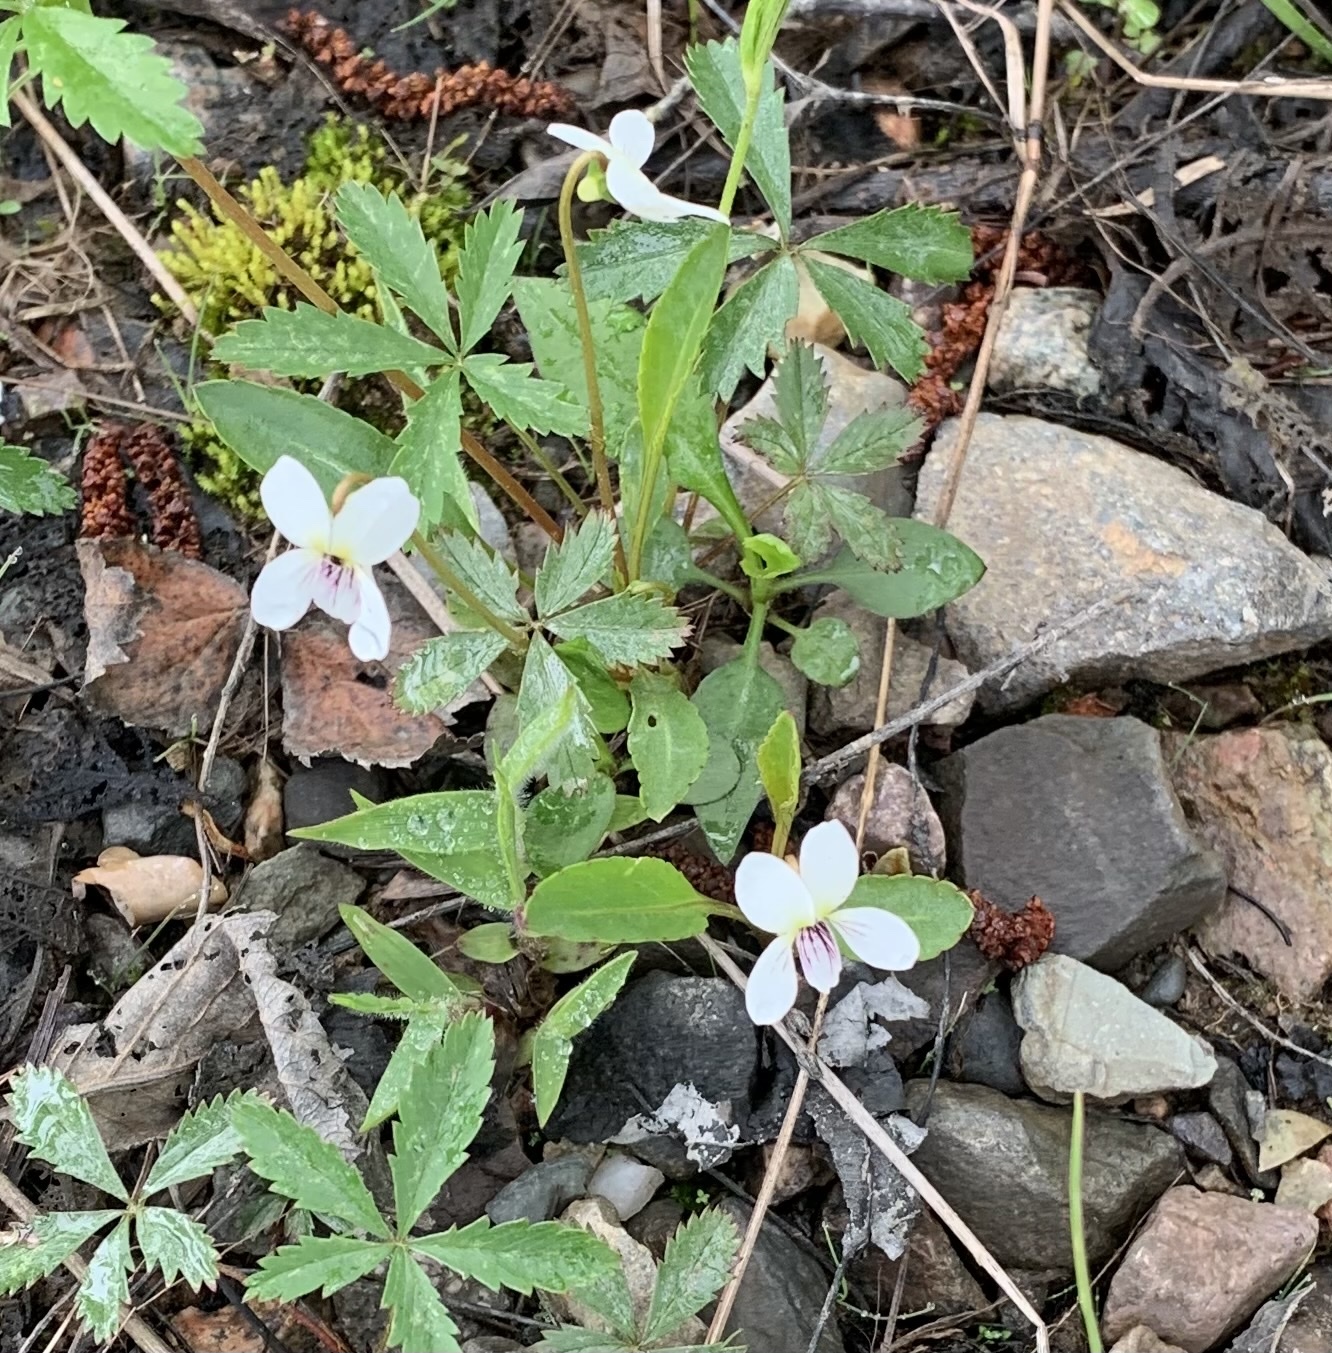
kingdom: Plantae
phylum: Tracheophyta
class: Magnoliopsida
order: Malpighiales
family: Violaceae
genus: Viola
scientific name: Viola lanceolata
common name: Bog white violet
